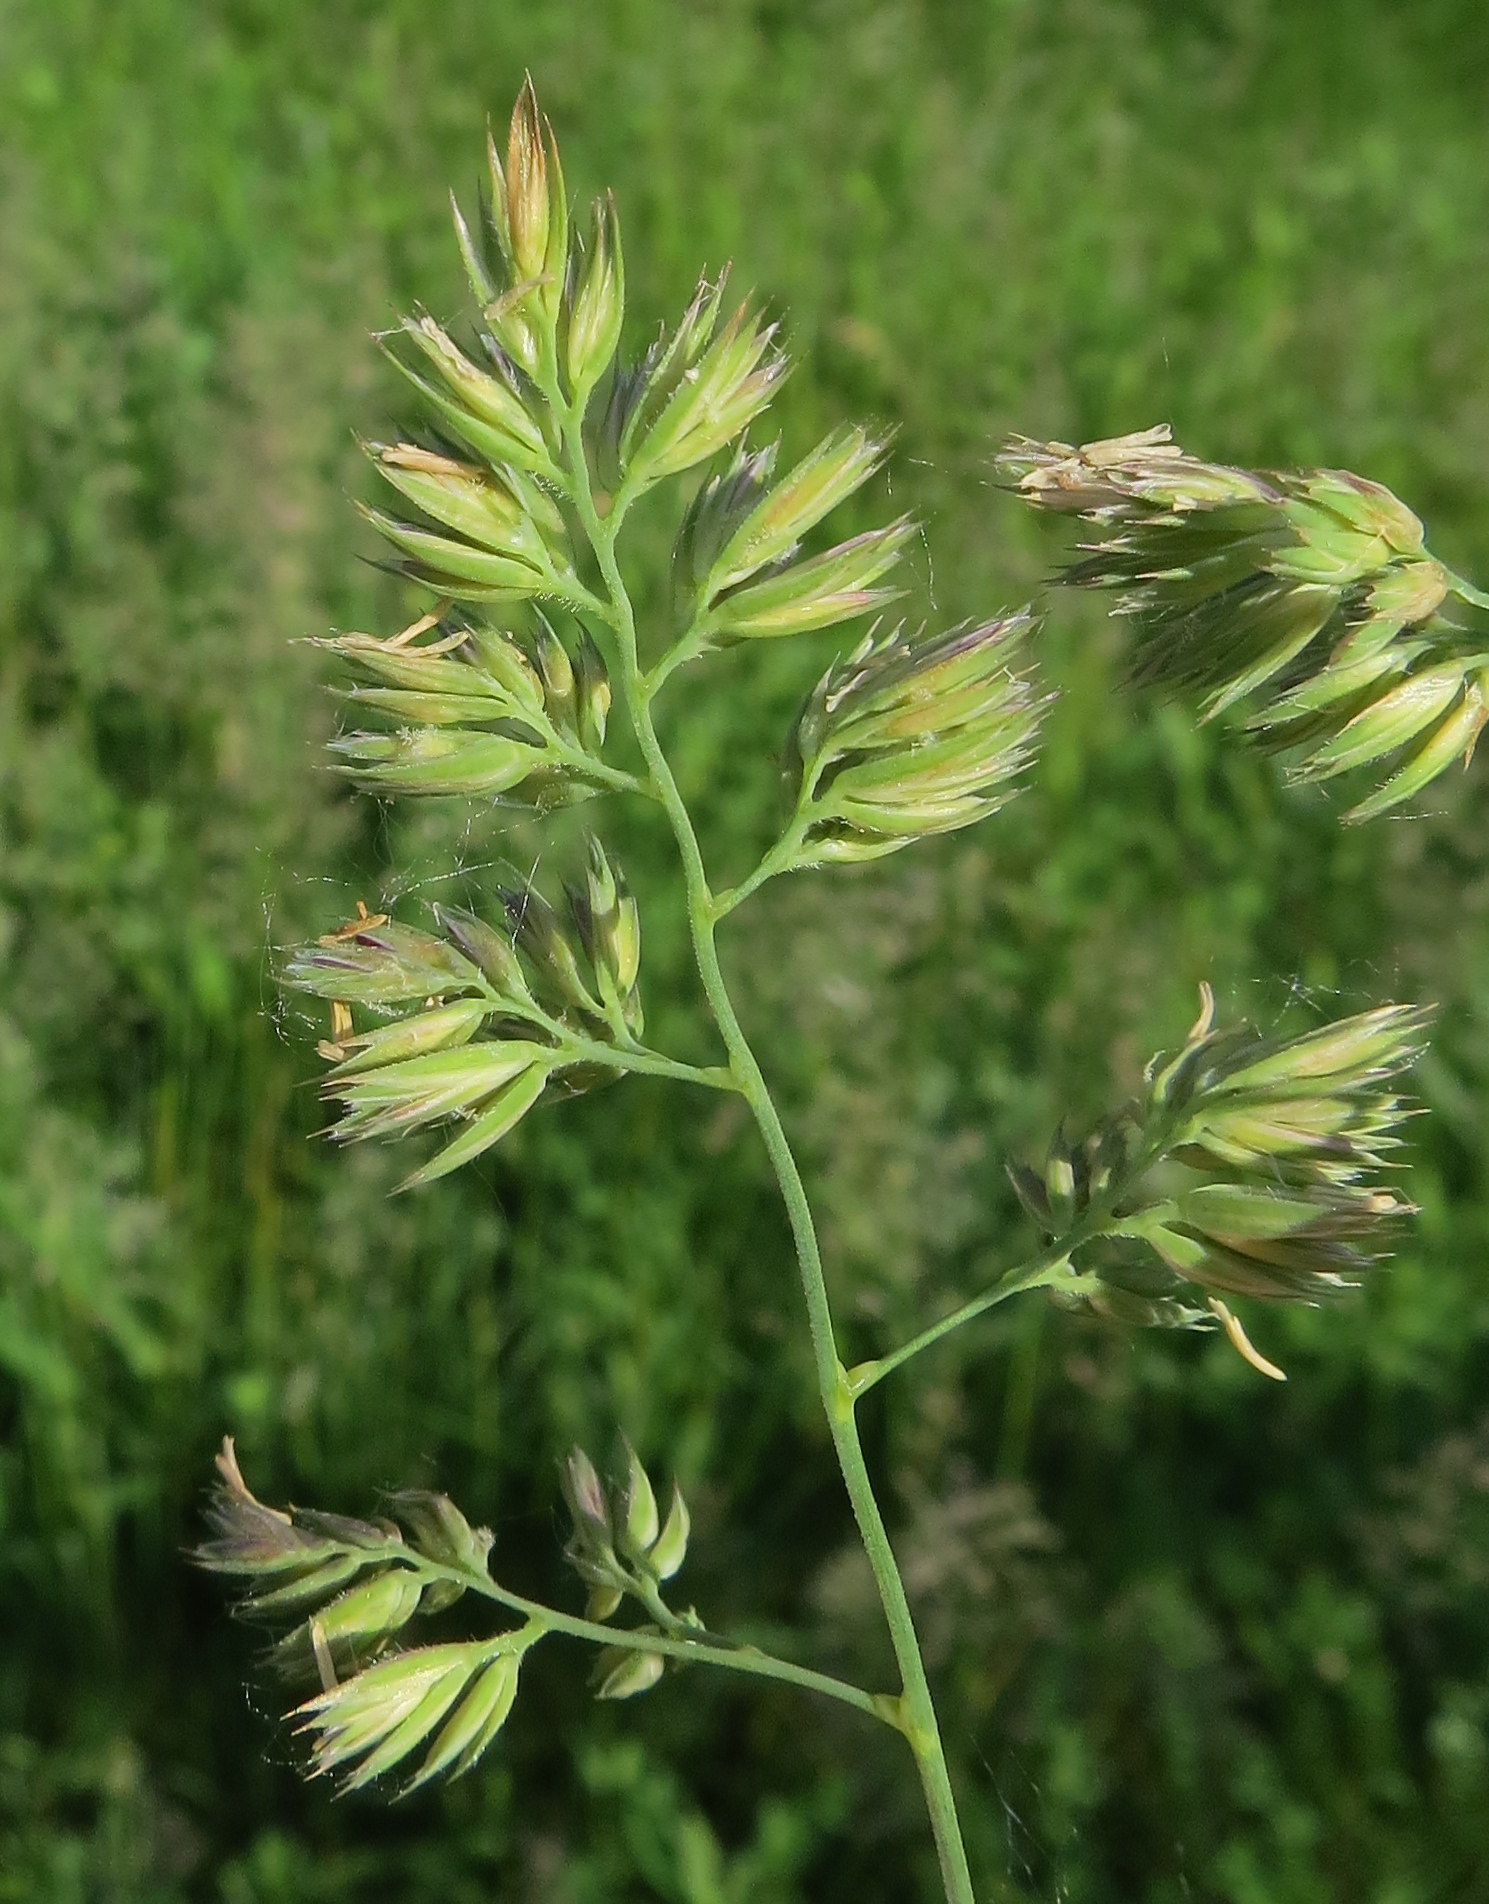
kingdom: Plantae
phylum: Tracheophyta
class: Liliopsida
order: Poales
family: Poaceae
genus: Dactylis
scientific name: Dactylis glomerata
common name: Orchardgrass
